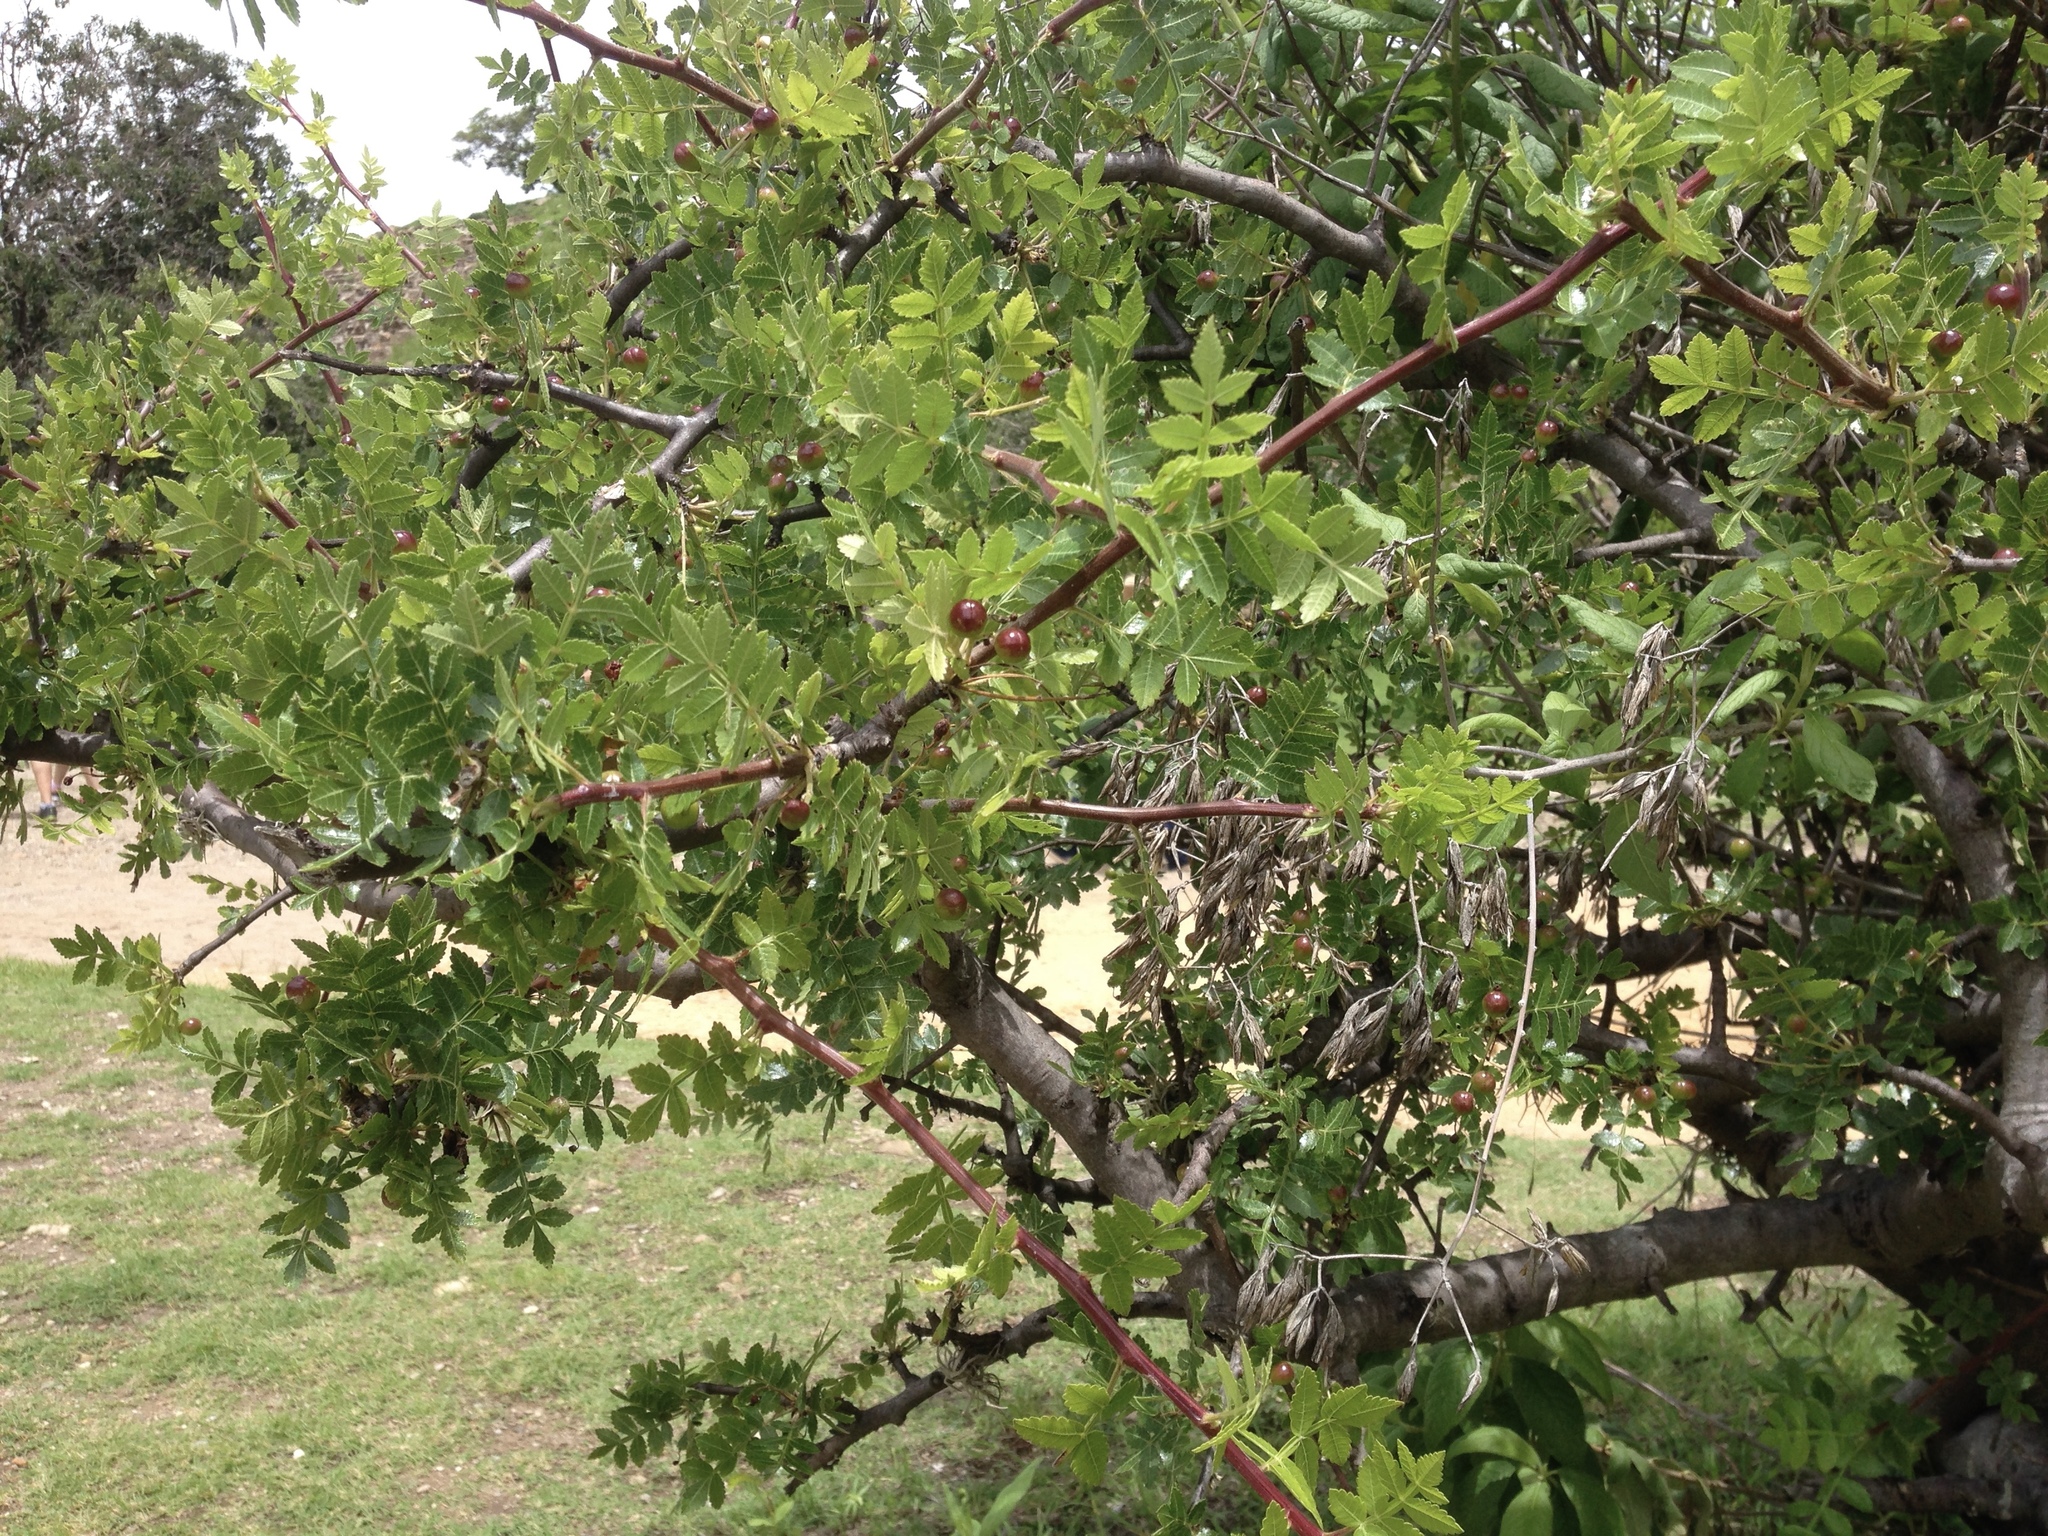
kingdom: Plantae
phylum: Tracheophyta
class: Magnoliopsida
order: Sapindales
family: Burseraceae
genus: Bursera
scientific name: Bursera glabrifolia
